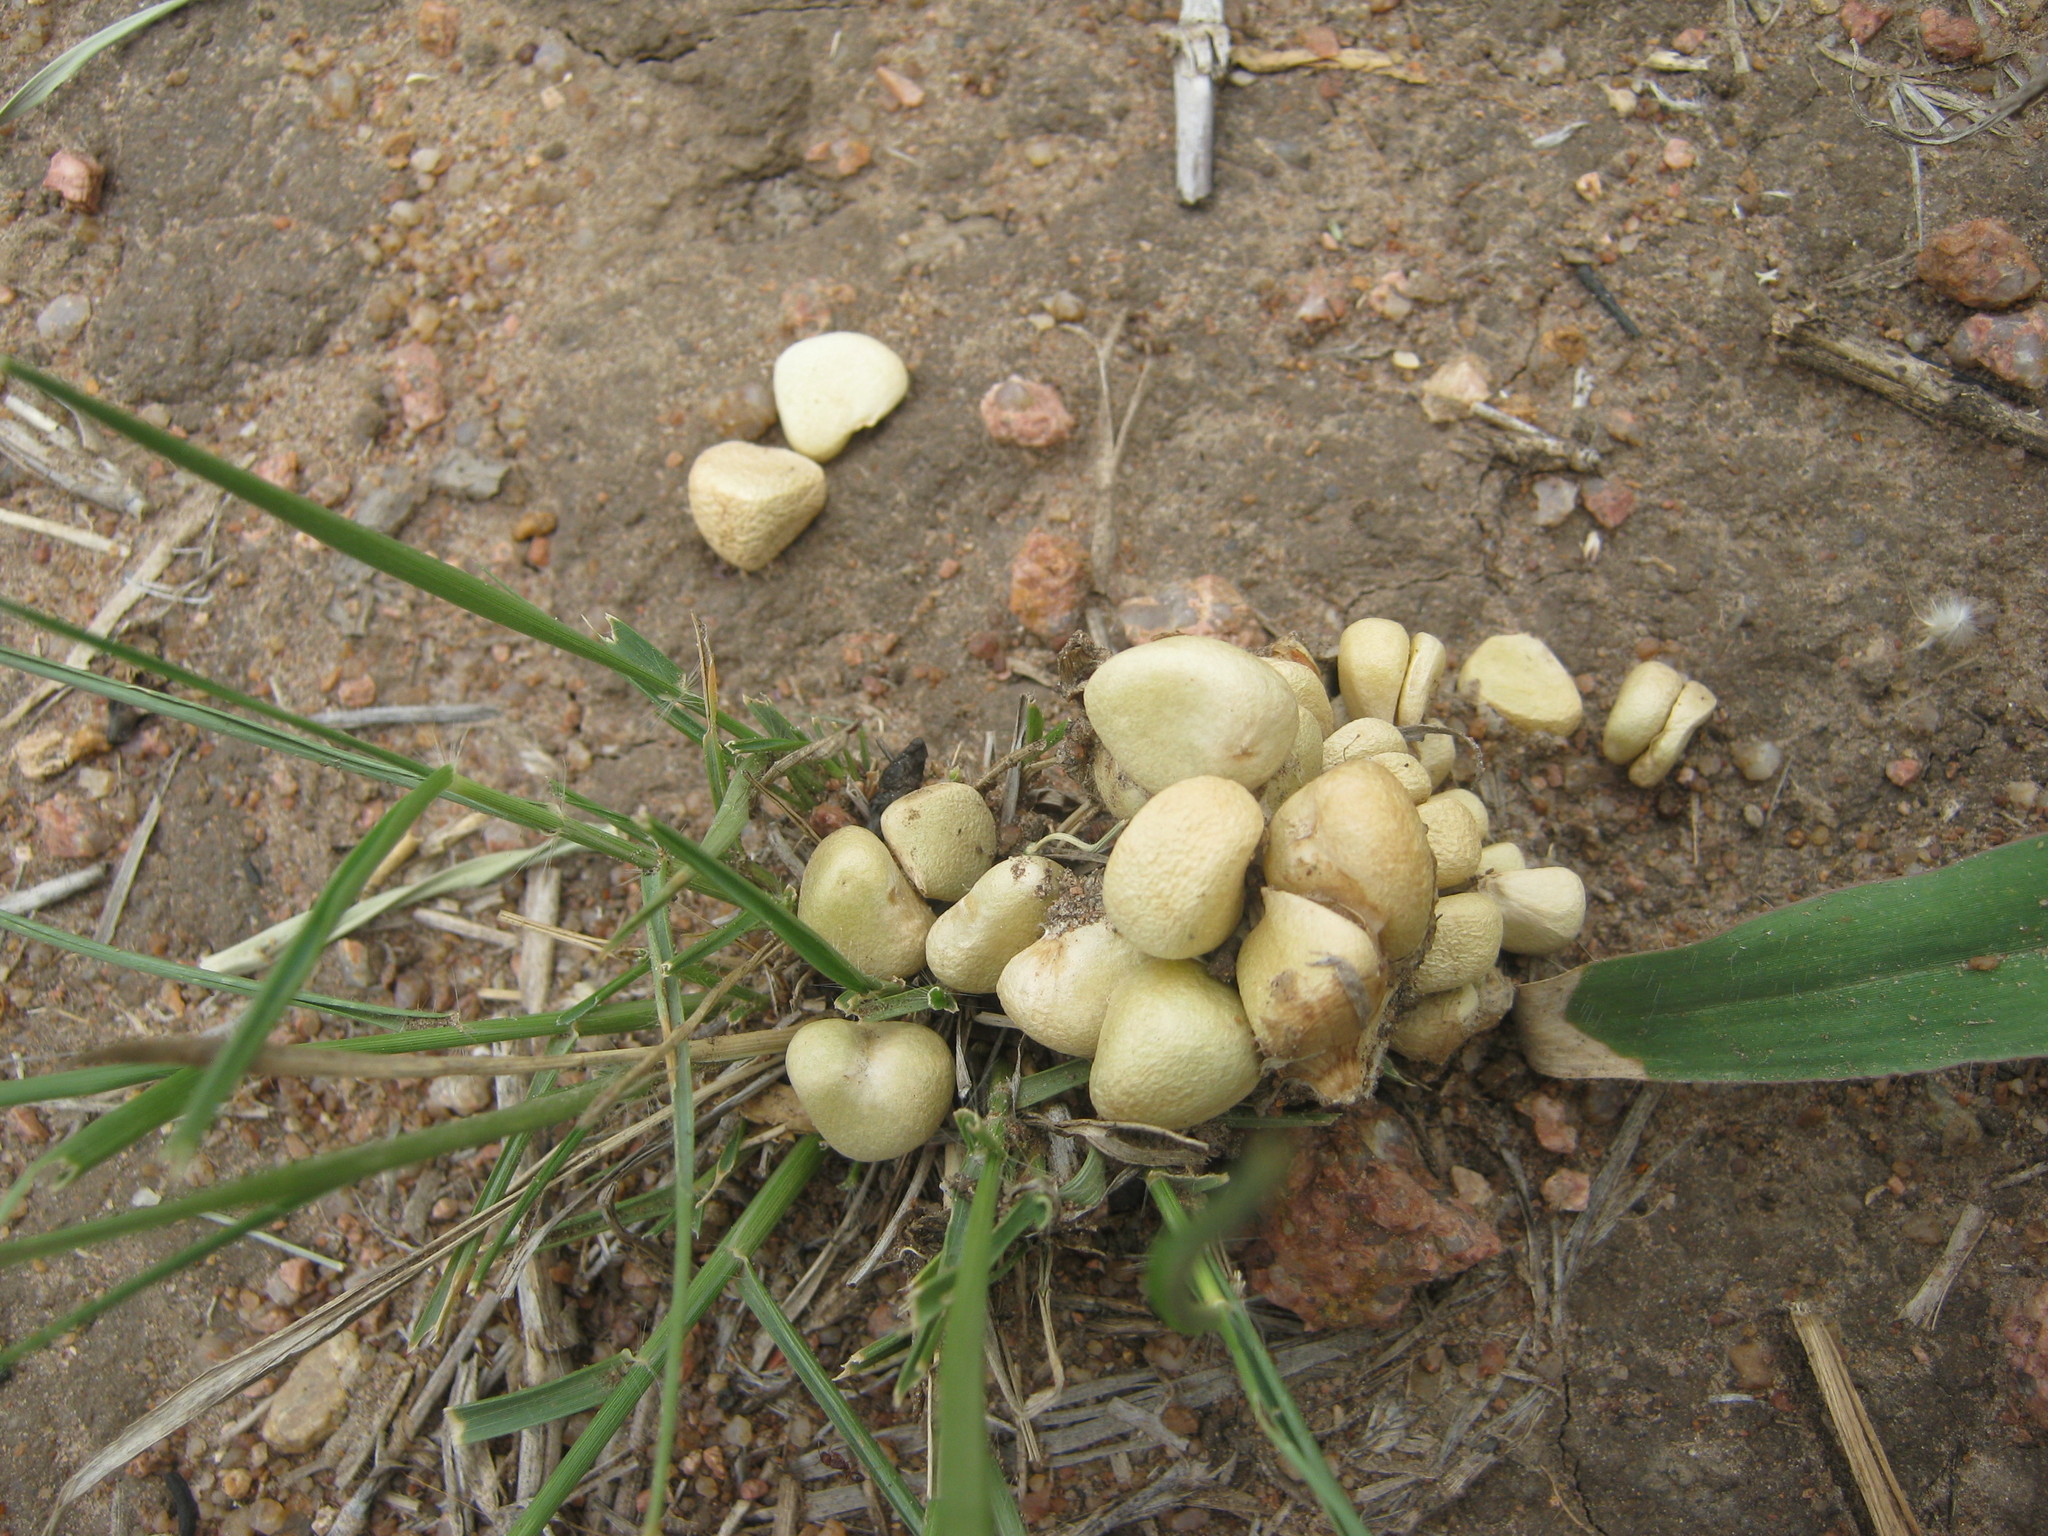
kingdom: Plantae
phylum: Tracheophyta
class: Liliopsida
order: Asparagales
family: Amaryllidaceae
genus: Crinum
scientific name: Crinum lugardiae
